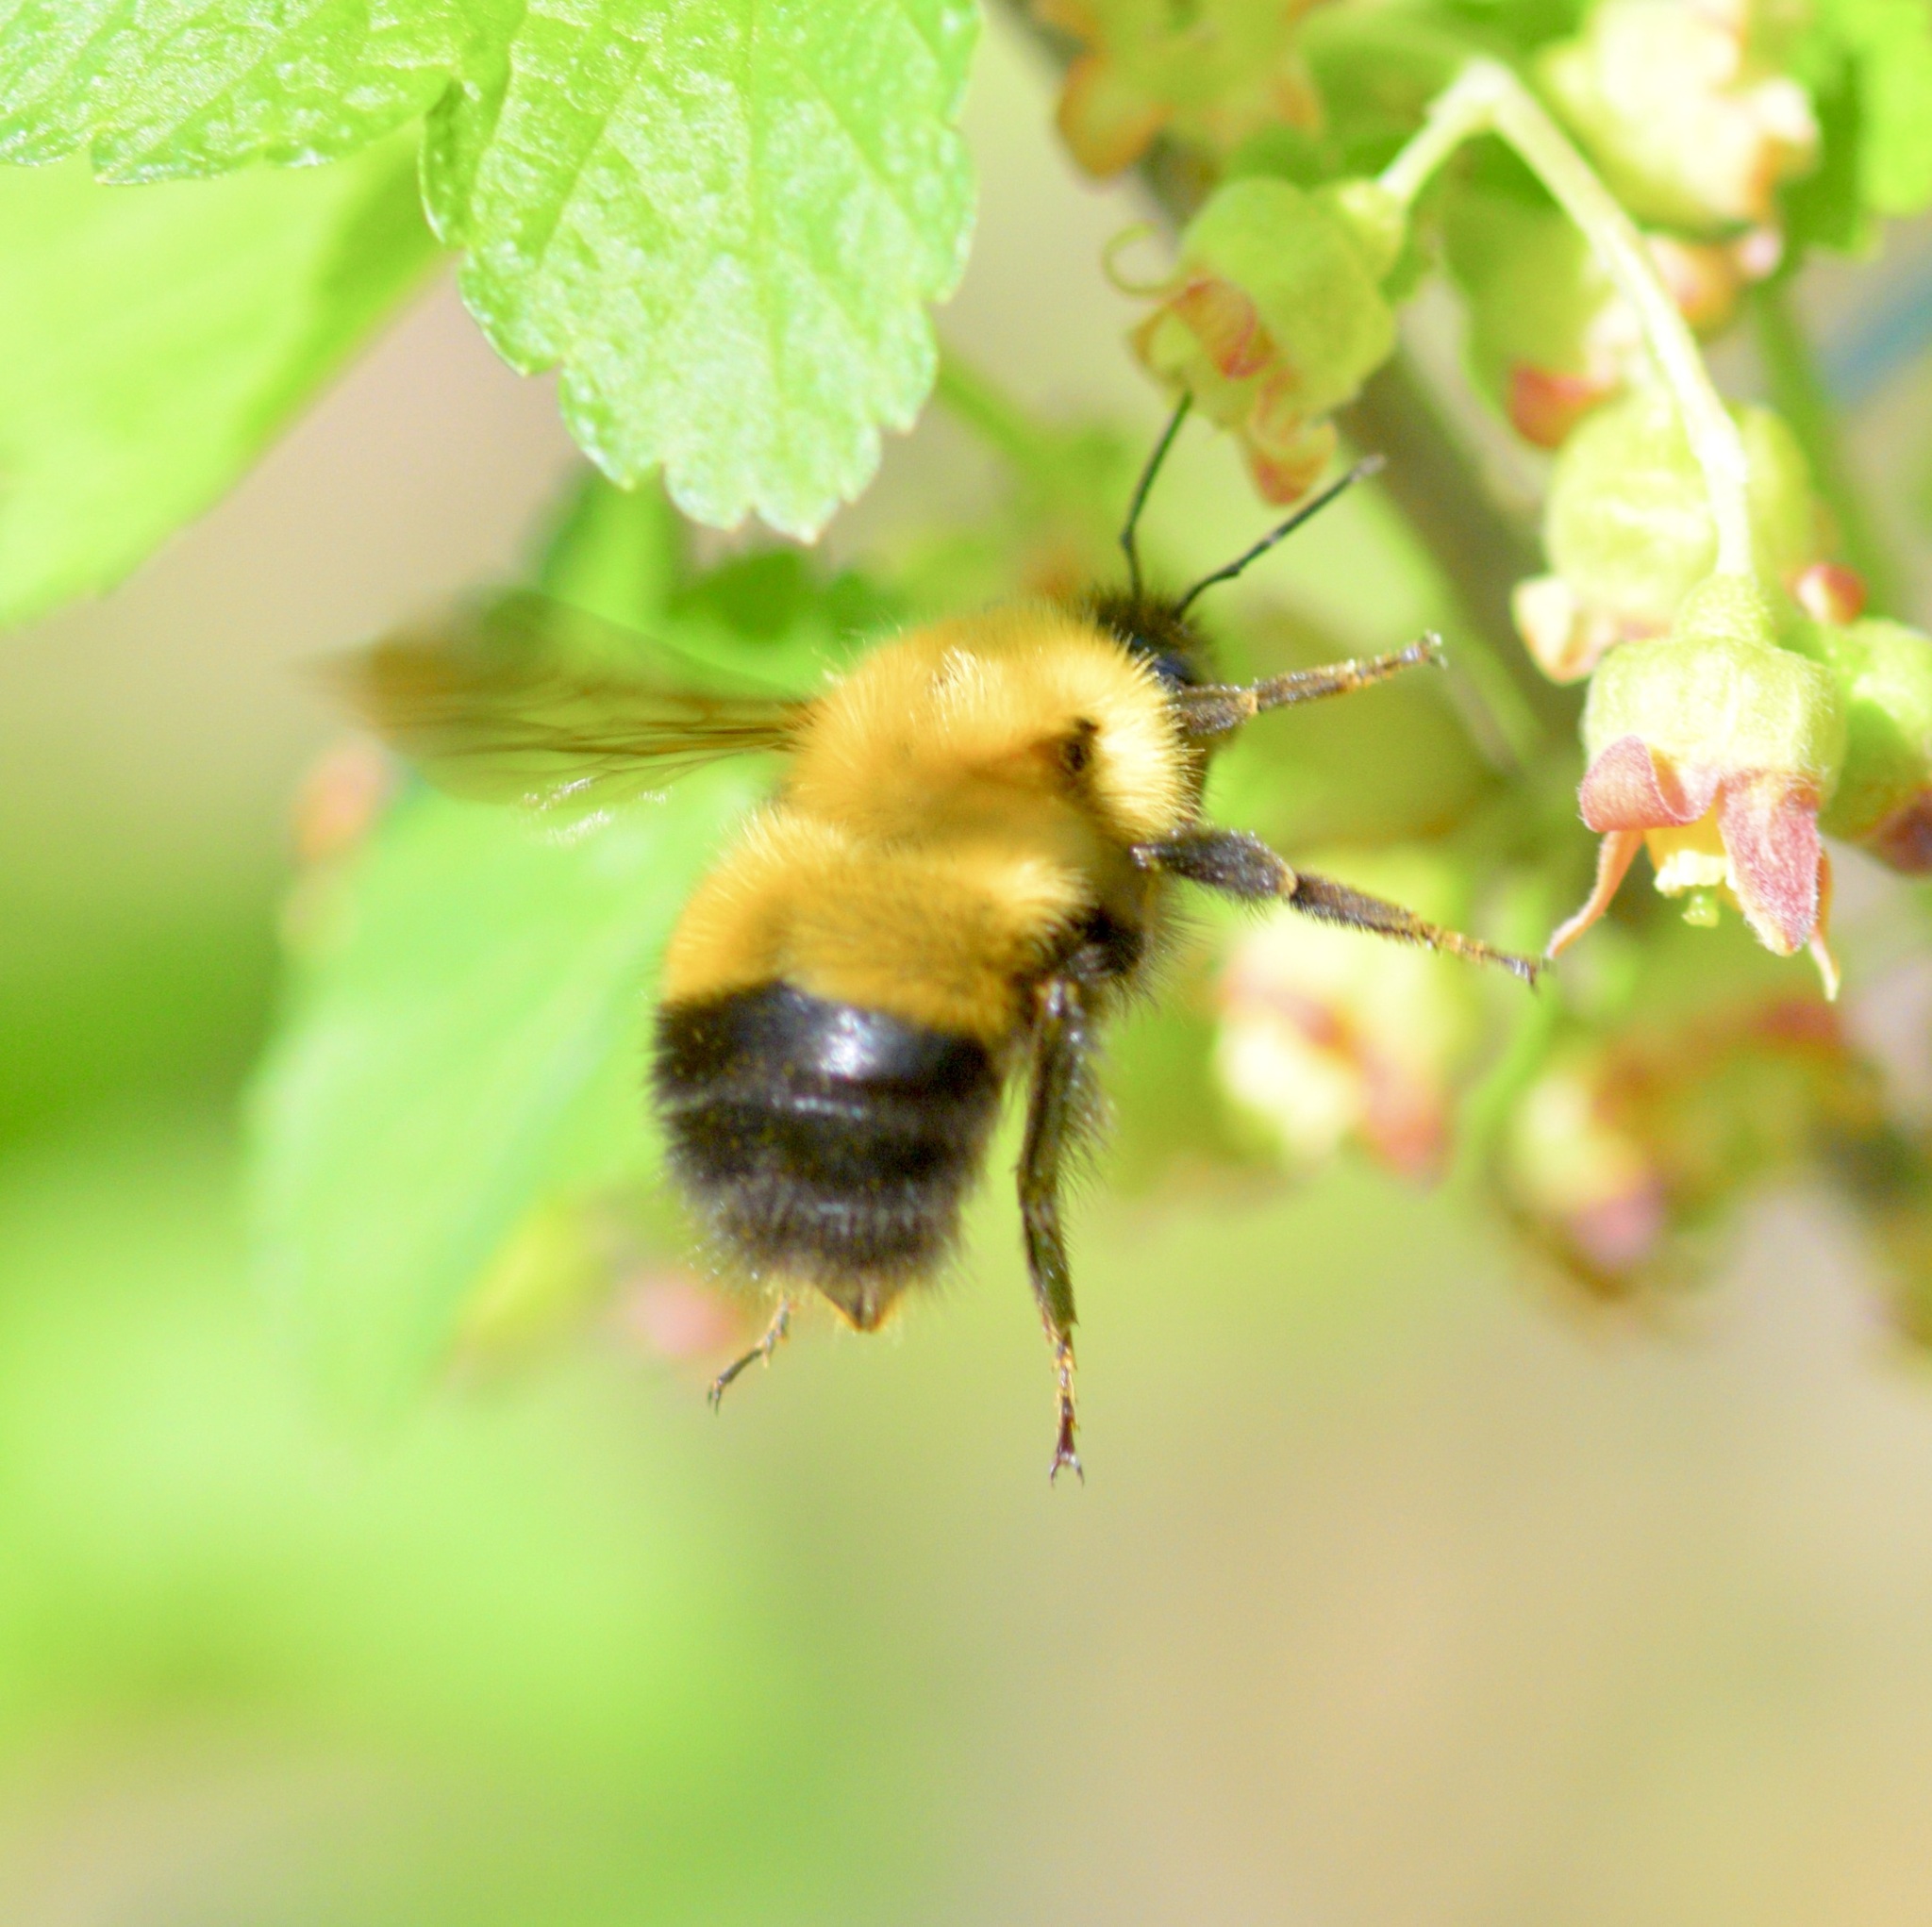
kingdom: Animalia
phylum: Arthropoda
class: Insecta
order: Hymenoptera
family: Apidae
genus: Bombus
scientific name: Bombus perplexus
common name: Confusing bumble bee
